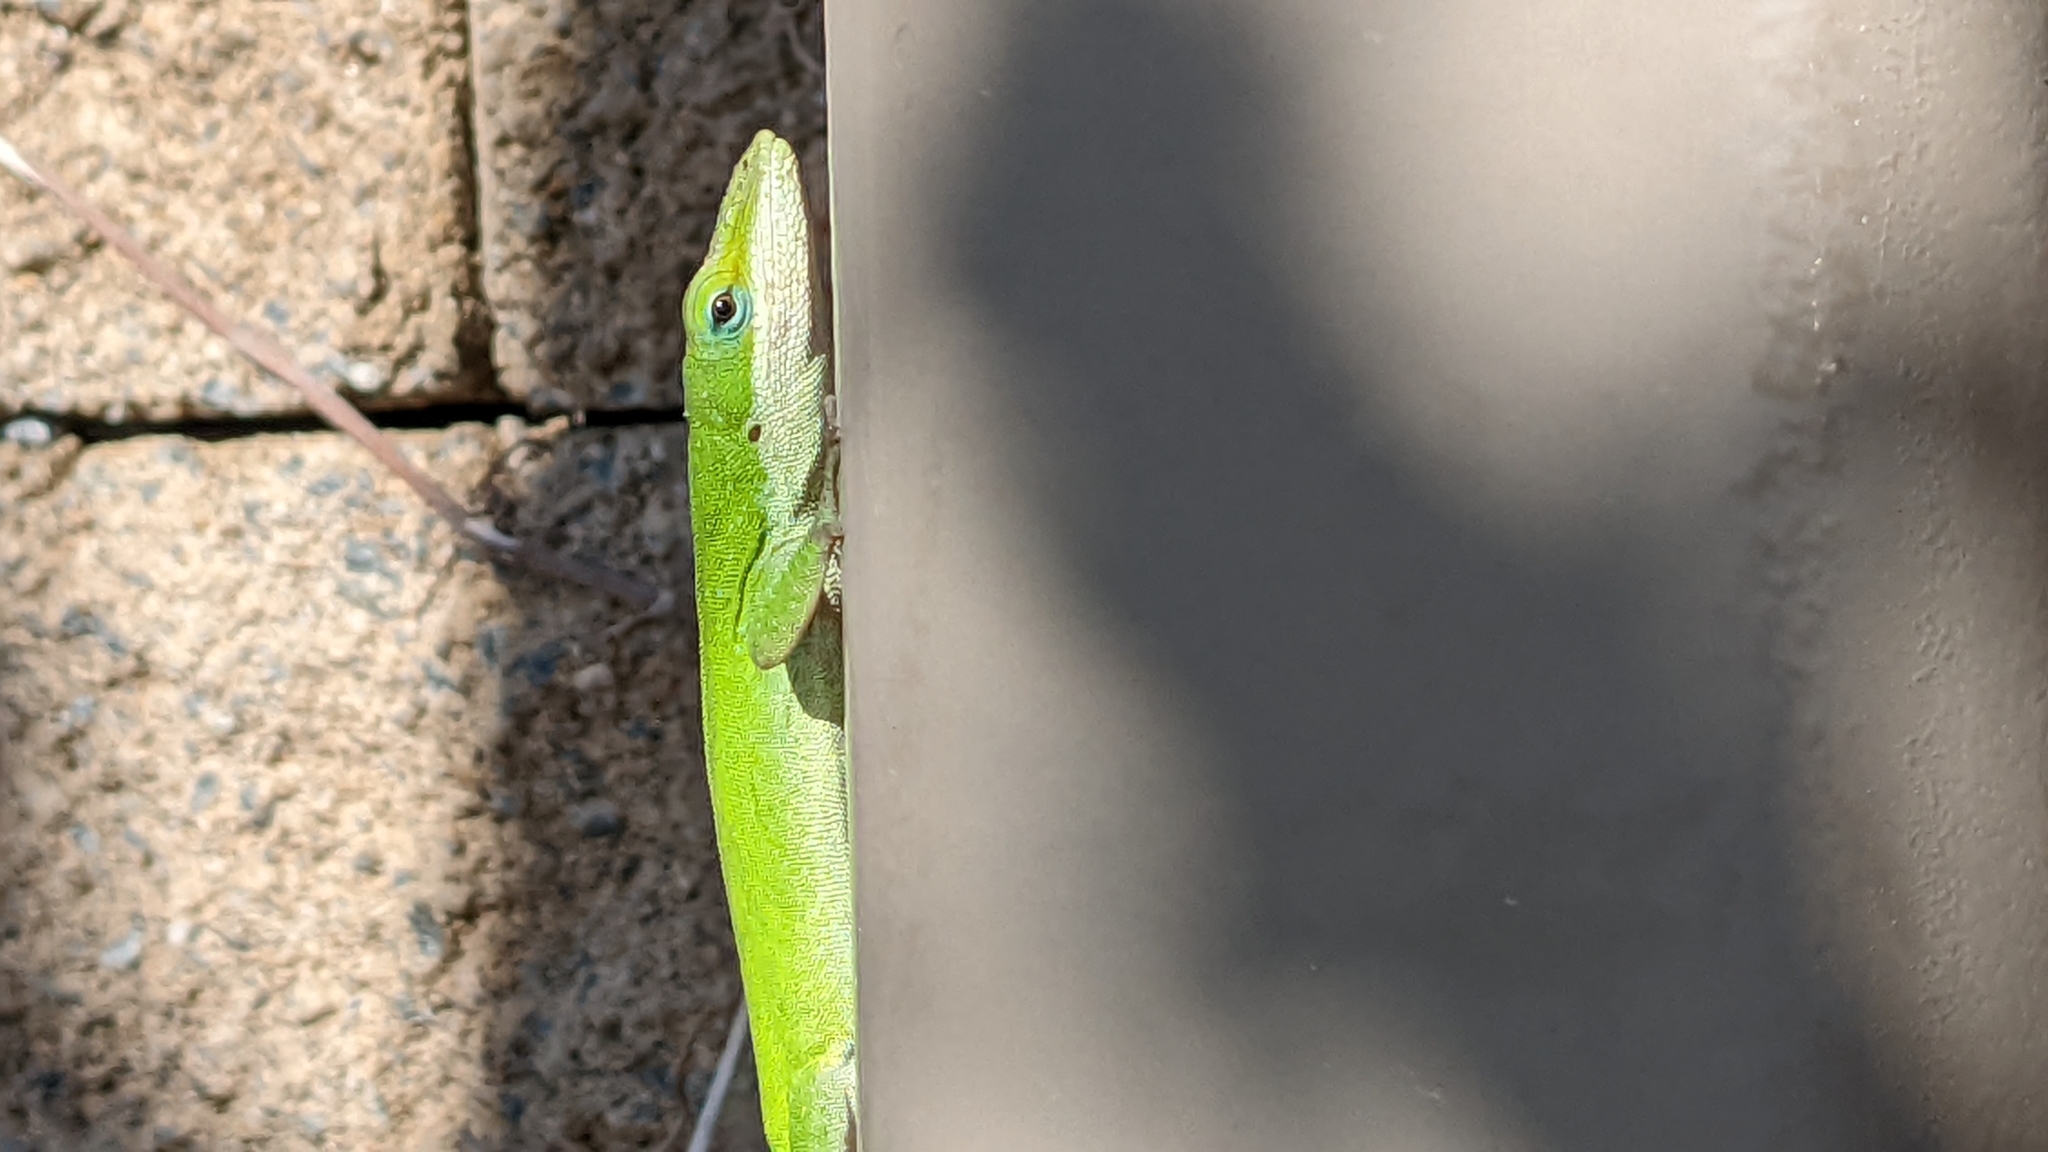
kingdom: Animalia
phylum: Chordata
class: Squamata
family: Dactyloidae
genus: Anolis
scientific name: Anolis carolinensis
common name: Green anole
